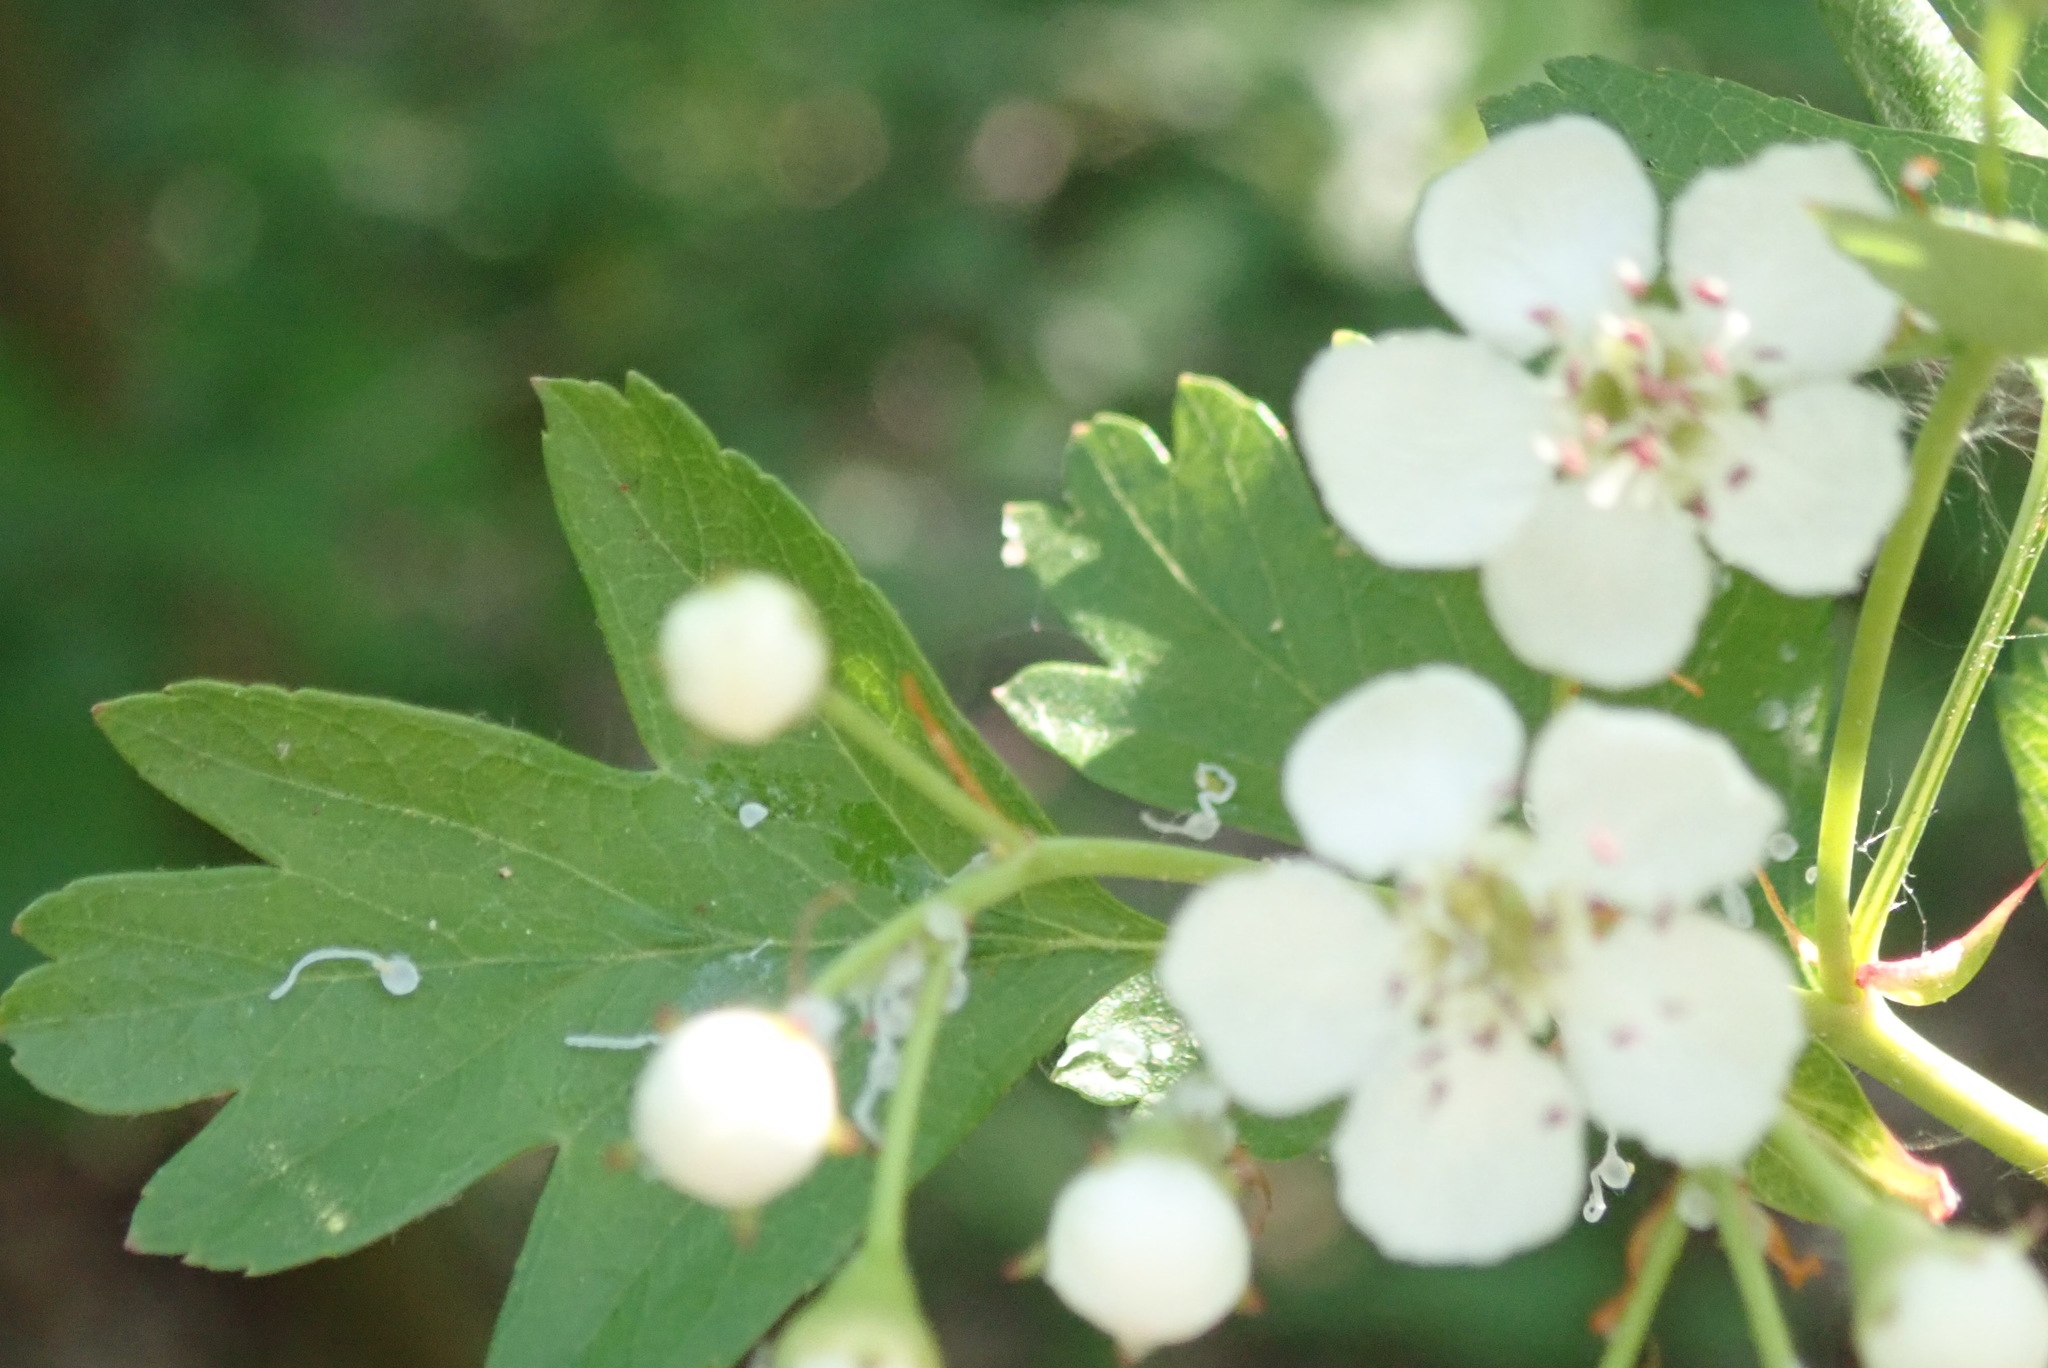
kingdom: Plantae
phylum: Tracheophyta
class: Magnoliopsida
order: Rosales
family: Rosaceae
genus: Crataegus
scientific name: Crataegus monogyna
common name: Hawthorn
